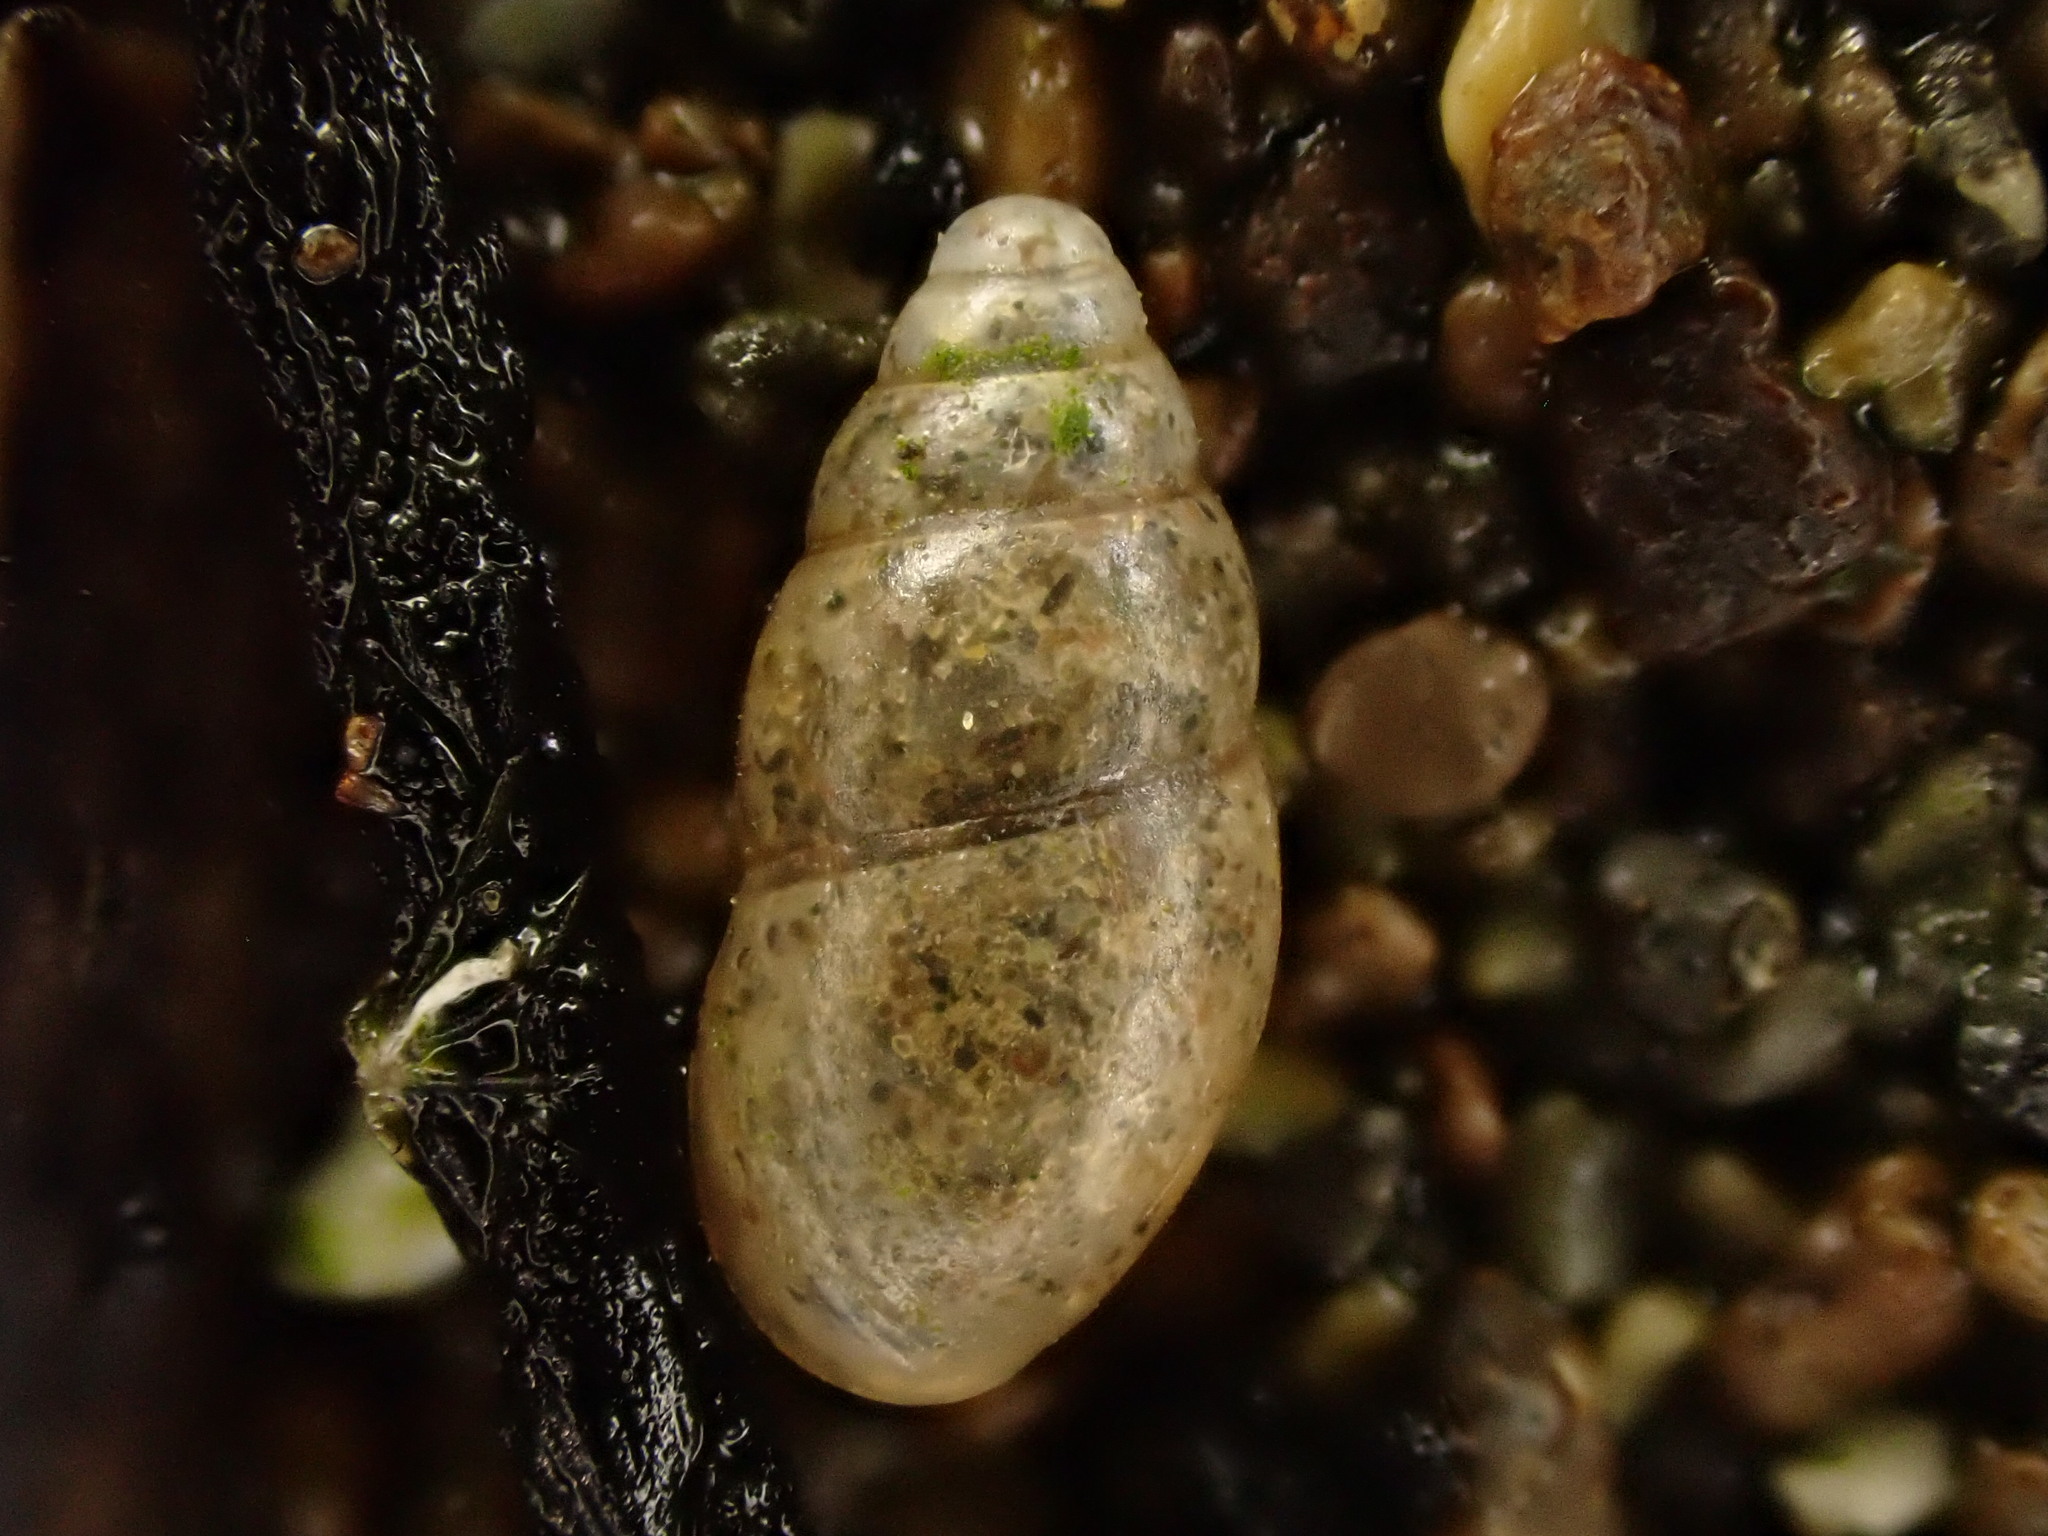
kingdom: Animalia
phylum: Mollusca
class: Gastropoda
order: Stylommatophora
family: Cochlicopidae
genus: Cochlicopa
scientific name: Cochlicopa lubrica
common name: Glossy pillar snail
